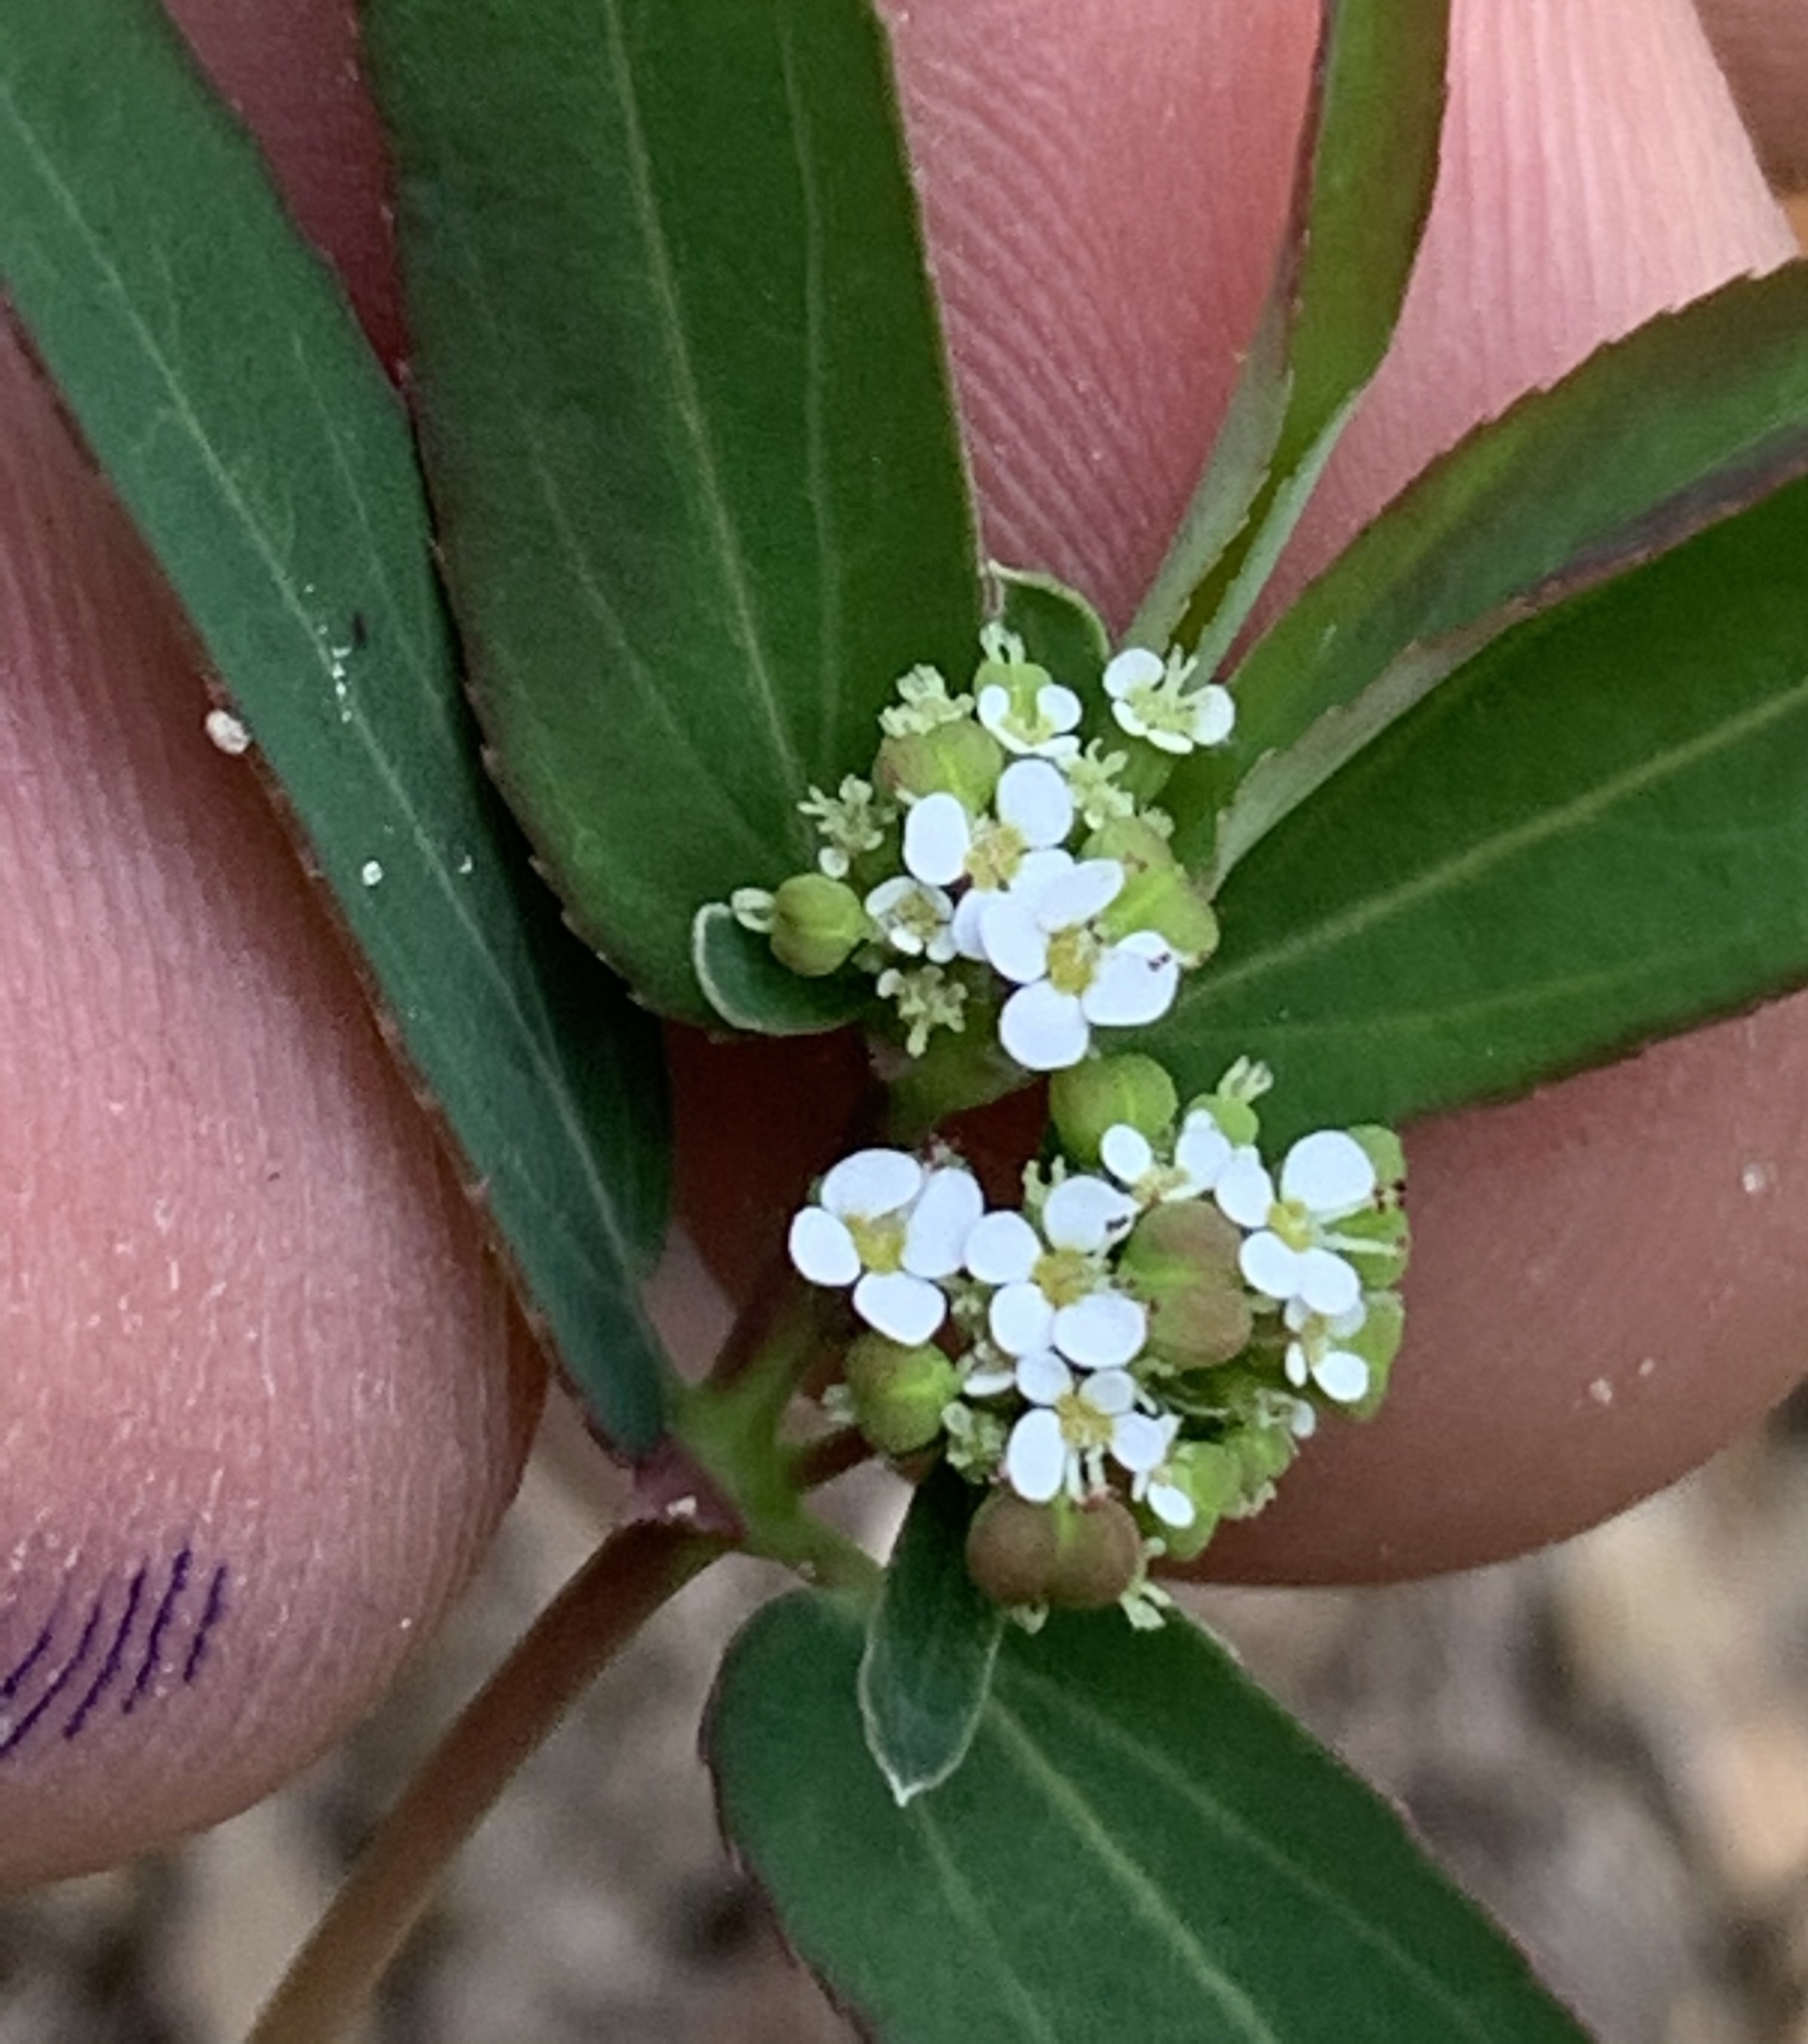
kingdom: Plantae
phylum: Tracheophyta
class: Magnoliopsida
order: Malpighiales
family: Euphorbiaceae
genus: Euphorbia
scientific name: Euphorbia hypericifolia
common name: Graceful sandmat
